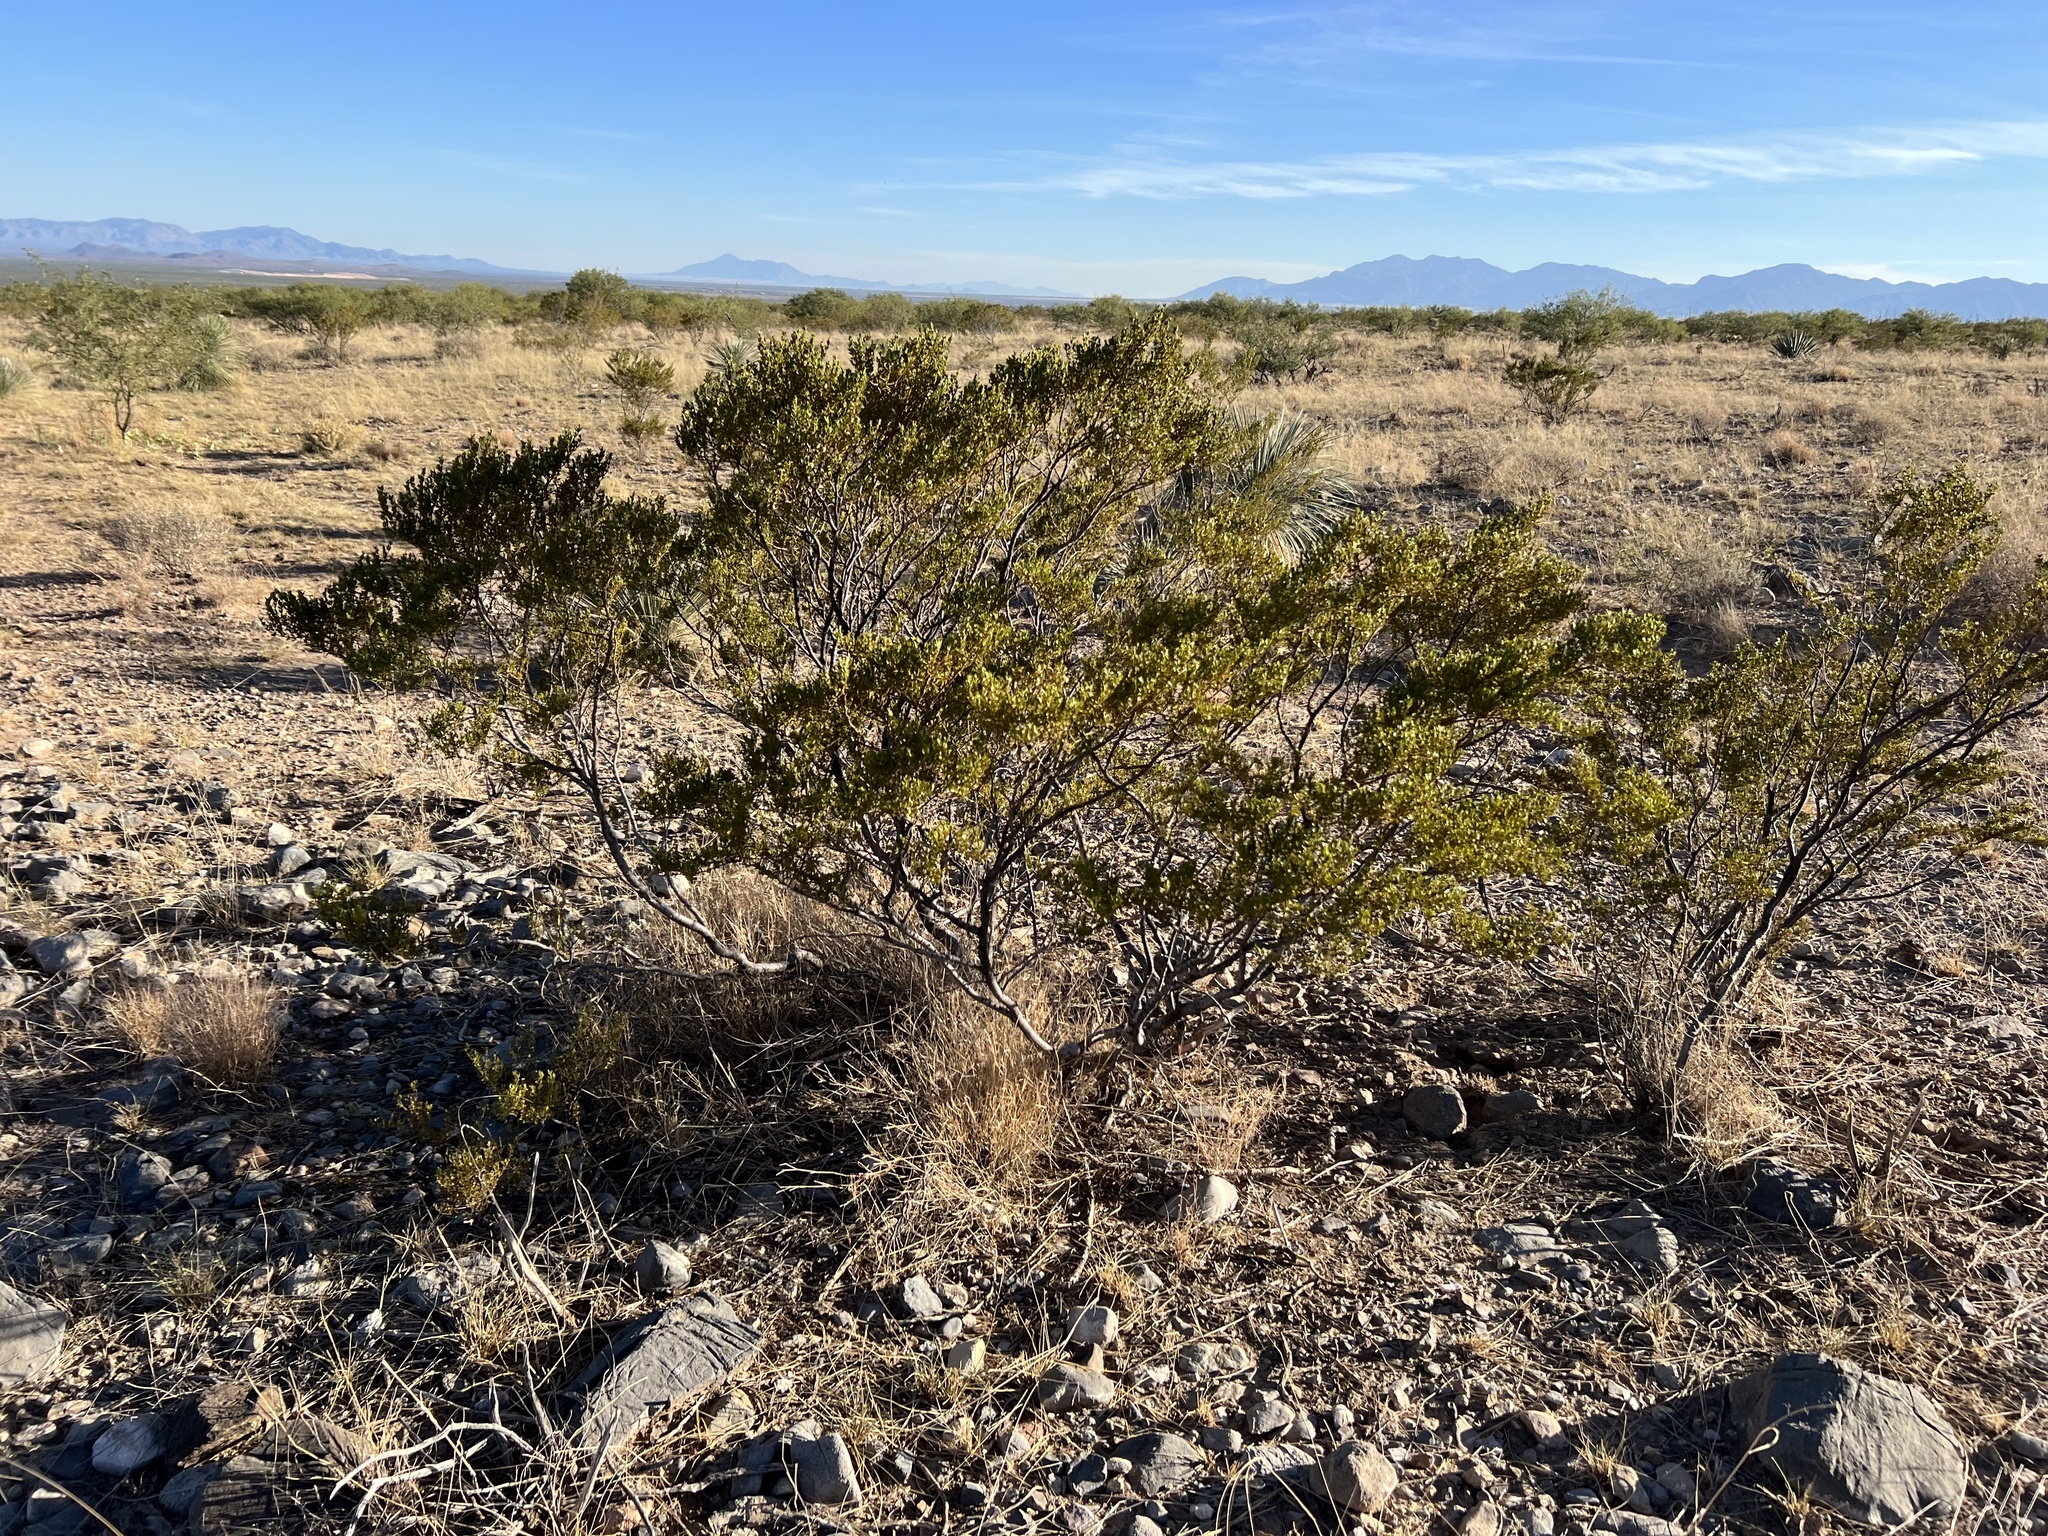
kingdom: Plantae
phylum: Tracheophyta
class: Magnoliopsida
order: Zygophyllales
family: Zygophyllaceae
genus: Larrea
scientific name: Larrea tridentata
